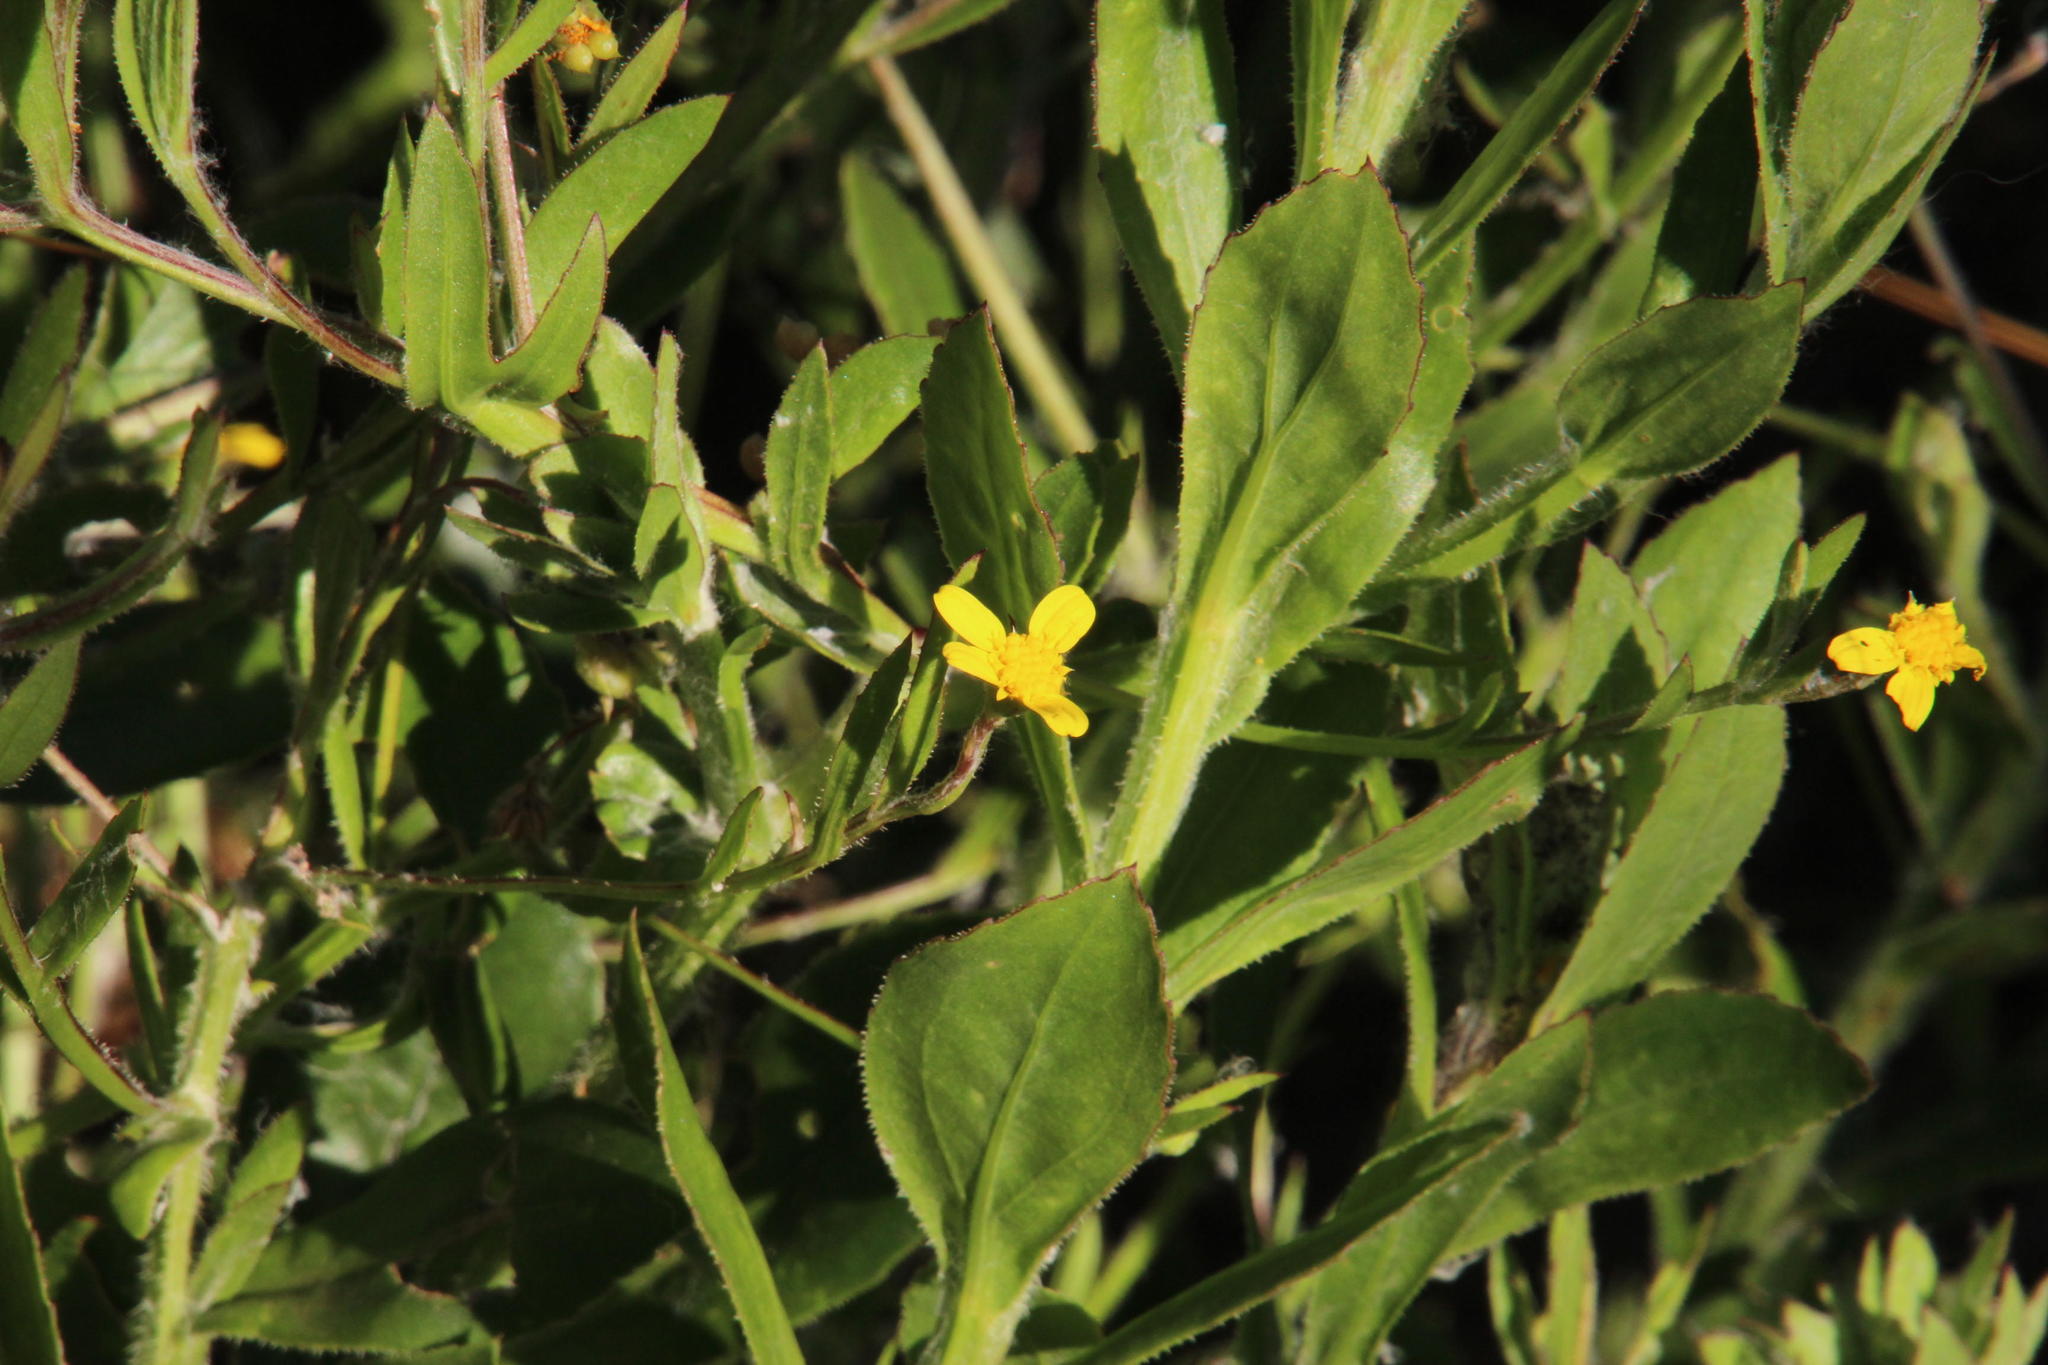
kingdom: Plantae
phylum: Tracheophyta
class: Magnoliopsida
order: Asterales
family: Asteraceae
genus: Osteospermum
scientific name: Osteospermum ciliatum
